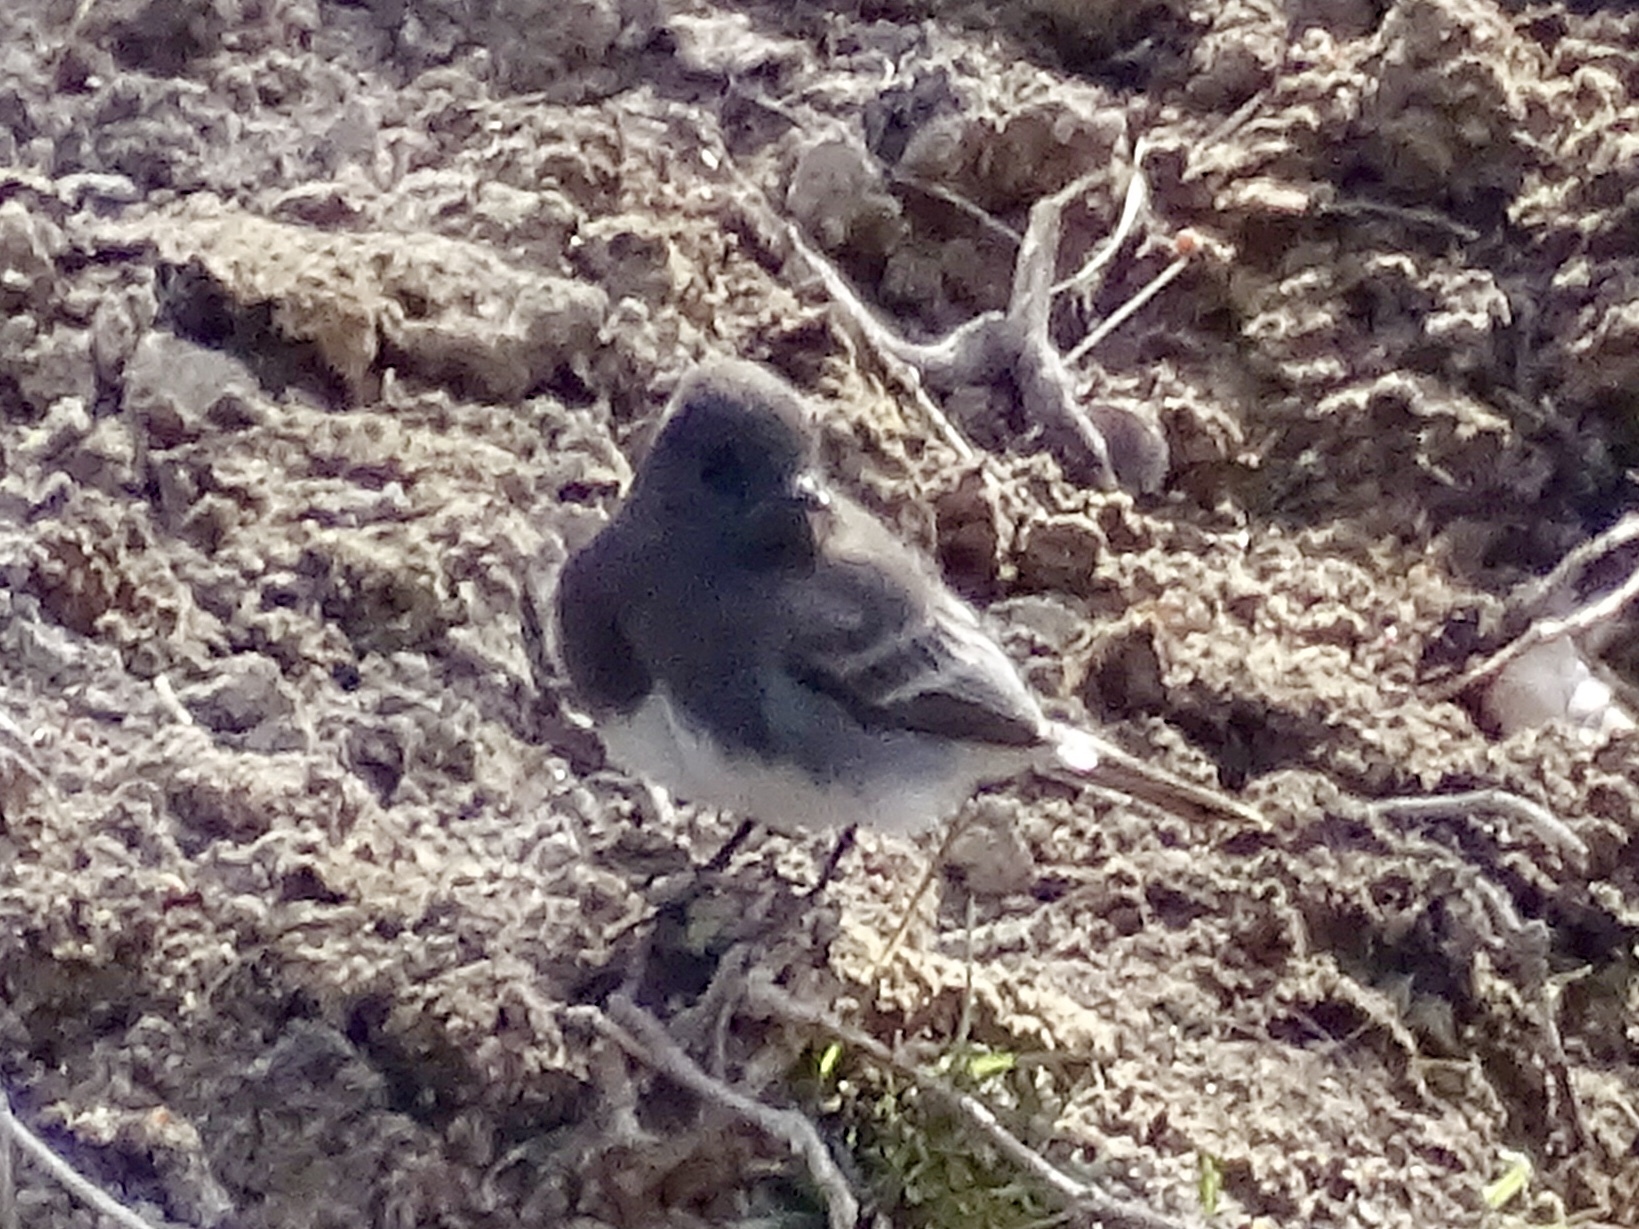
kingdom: Animalia
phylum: Chordata
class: Aves
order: Passeriformes
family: Tyrannidae
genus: Sayornis
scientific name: Sayornis nigricans
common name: Black phoebe
